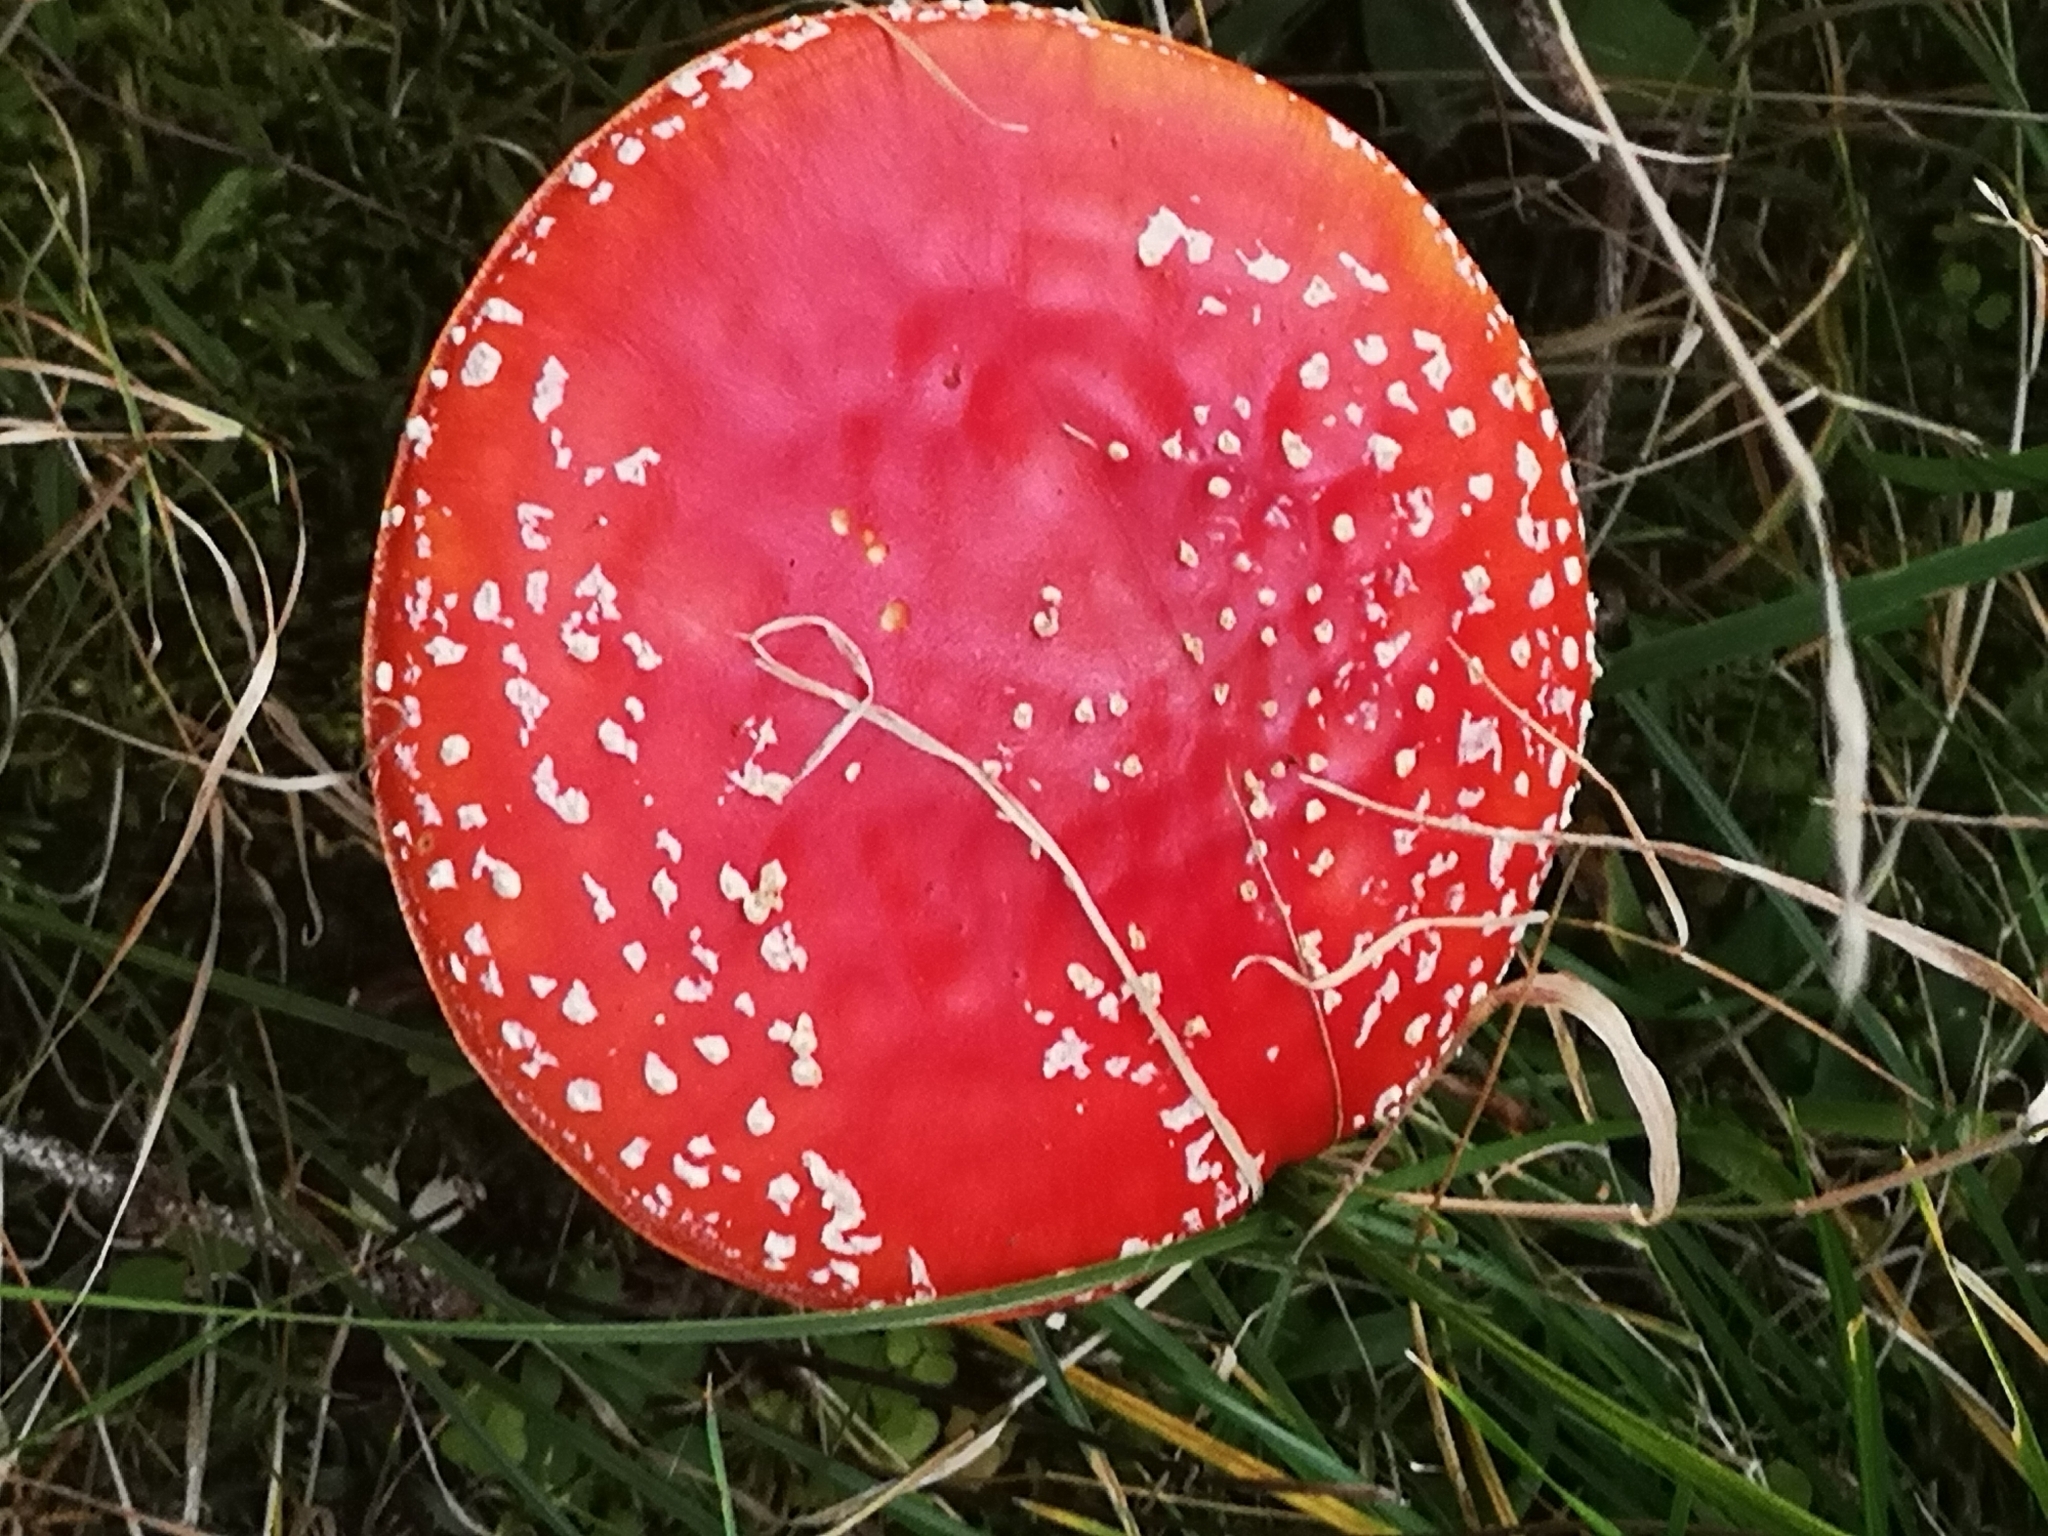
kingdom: Fungi
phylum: Basidiomycota
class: Agaricomycetes
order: Agaricales
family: Amanitaceae
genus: Amanita
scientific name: Amanita muscaria
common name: Fly agaric
